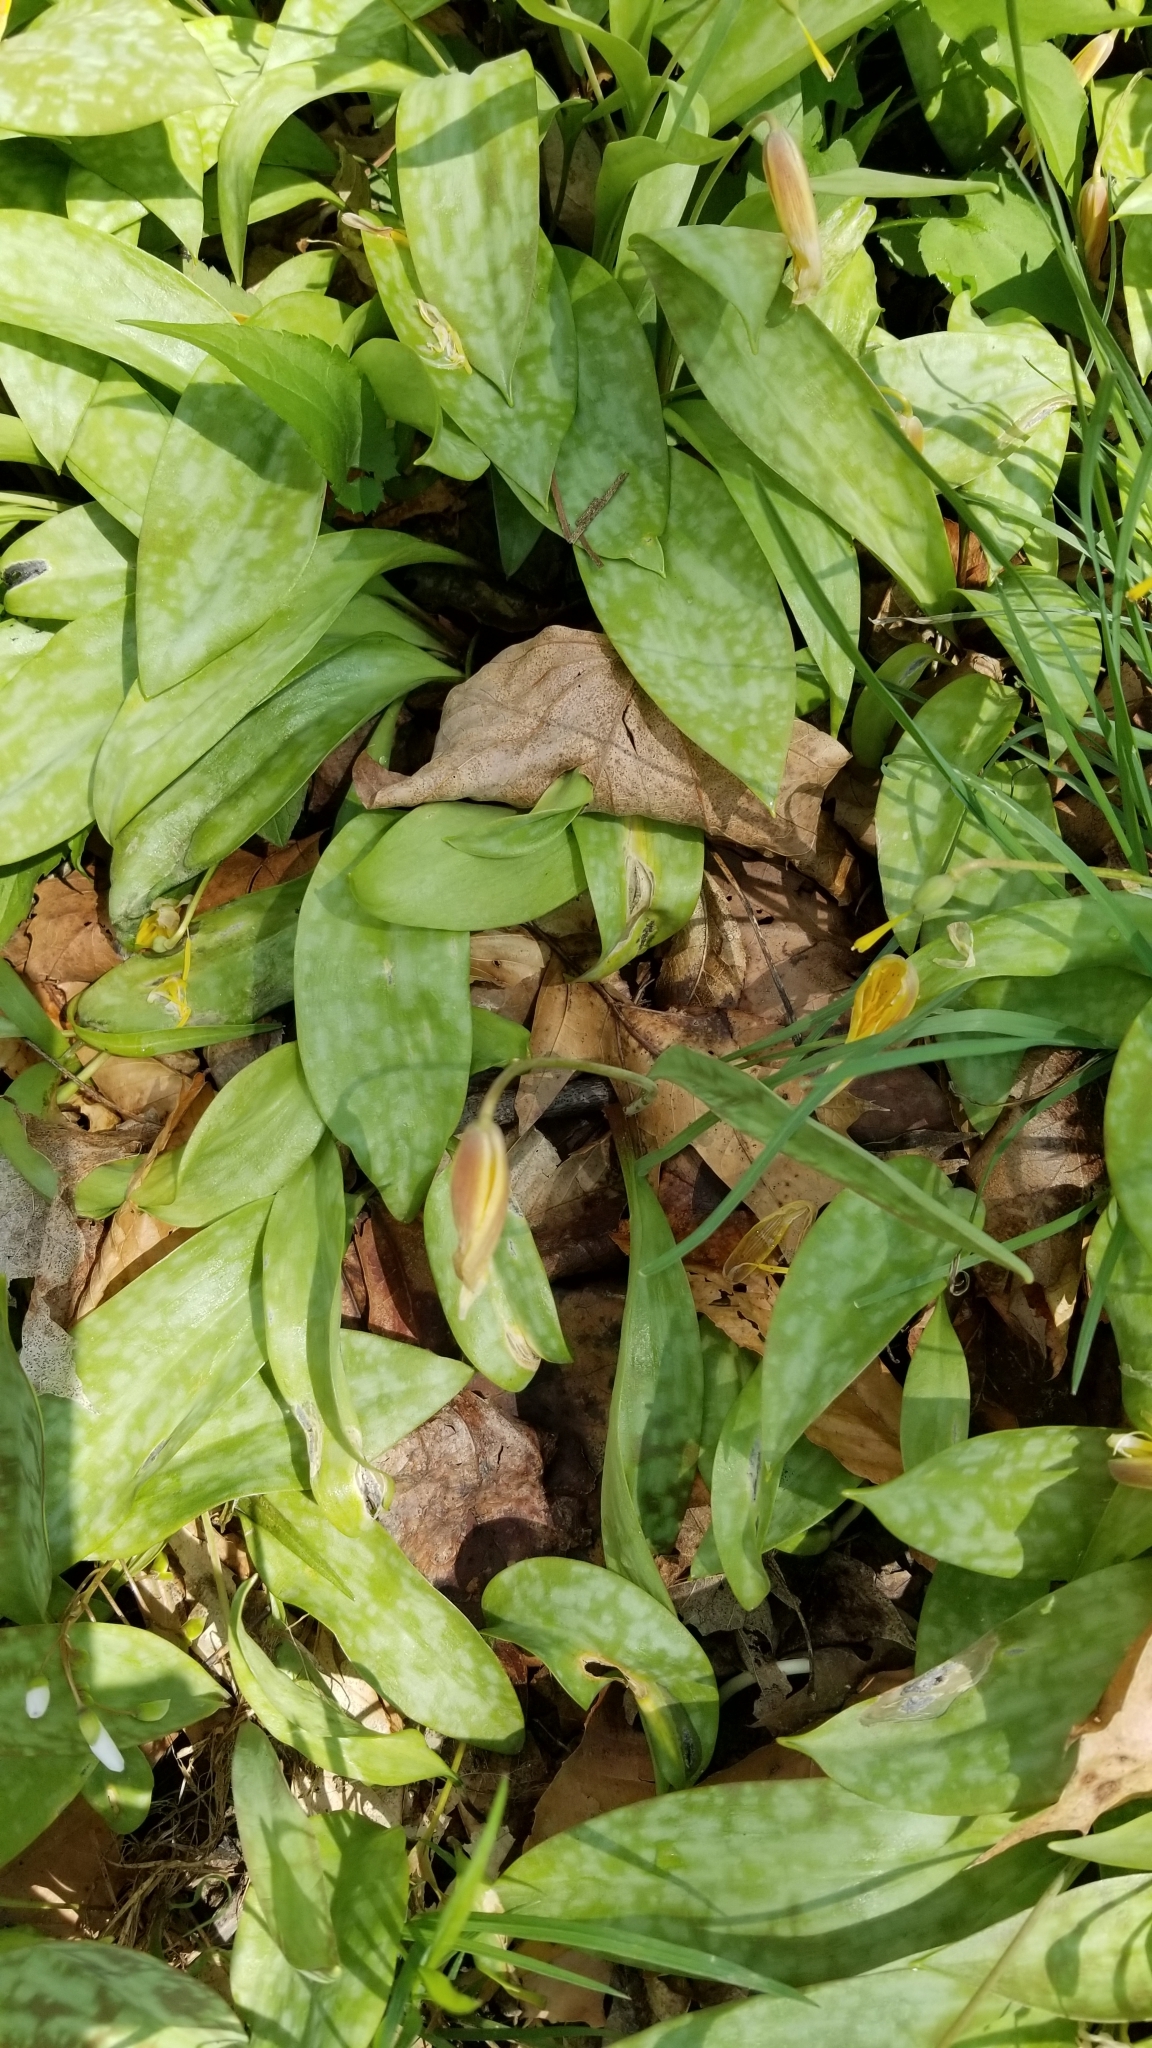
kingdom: Plantae
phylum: Tracheophyta
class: Liliopsida
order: Liliales
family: Liliaceae
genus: Erythronium
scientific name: Erythronium americanum
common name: Yellow adder's-tongue
